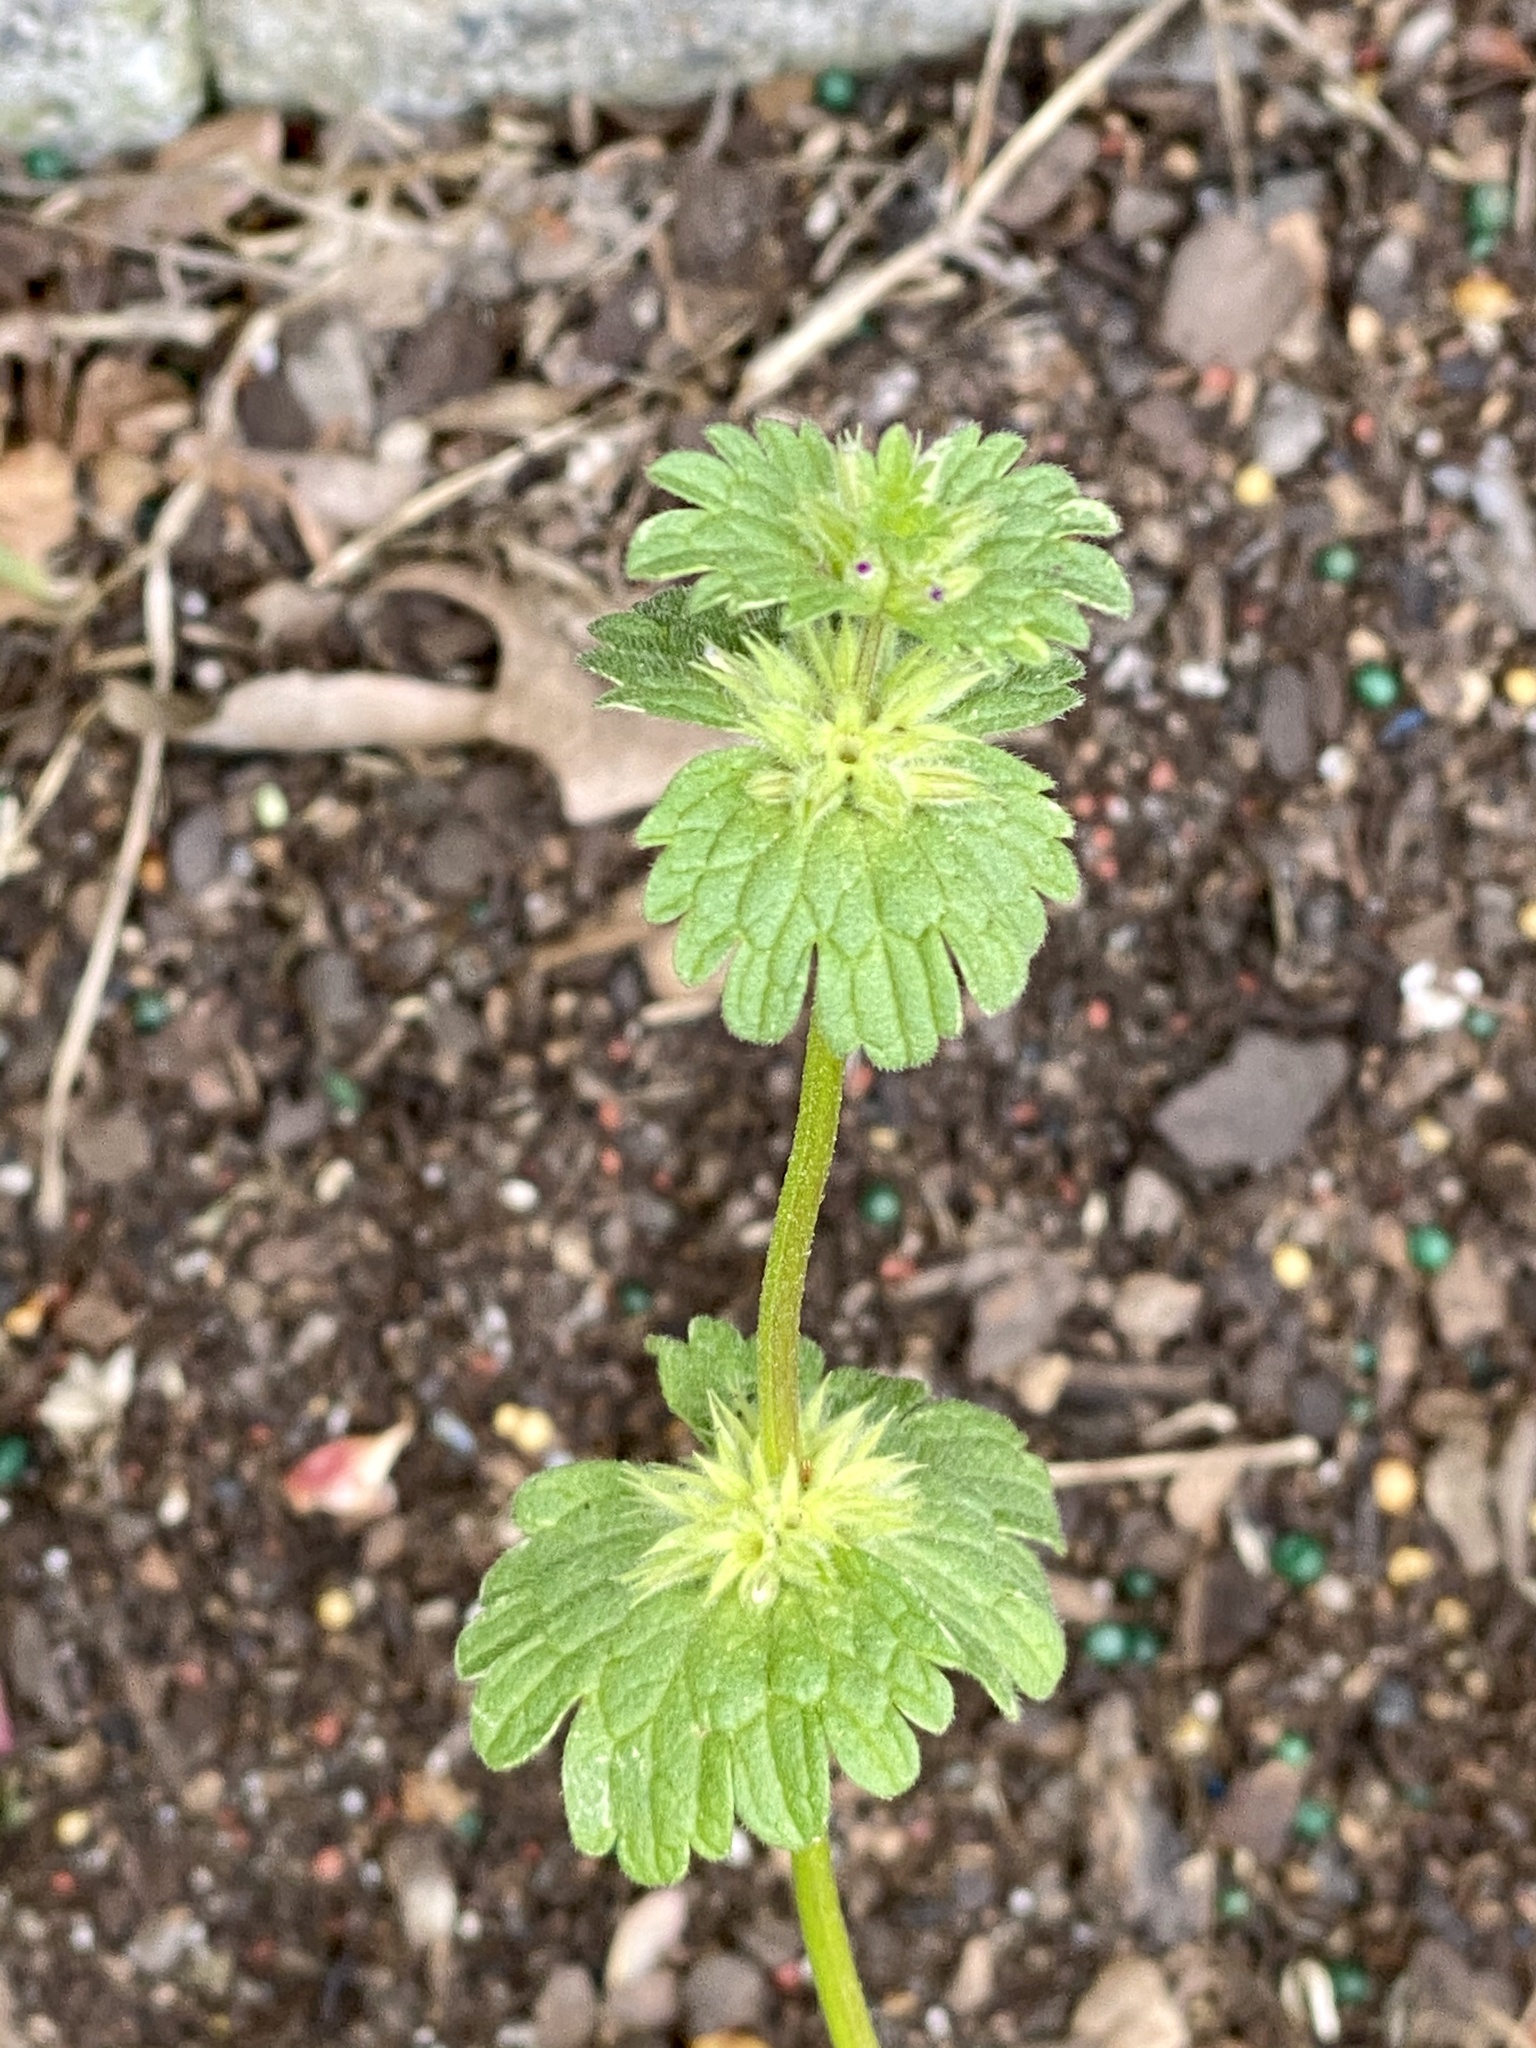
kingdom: Plantae
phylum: Tracheophyta
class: Magnoliopsida
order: Lamiales
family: Lamiaceae
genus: Lamium
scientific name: Lamium amplexicaule
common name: Henbit dead-nettle
